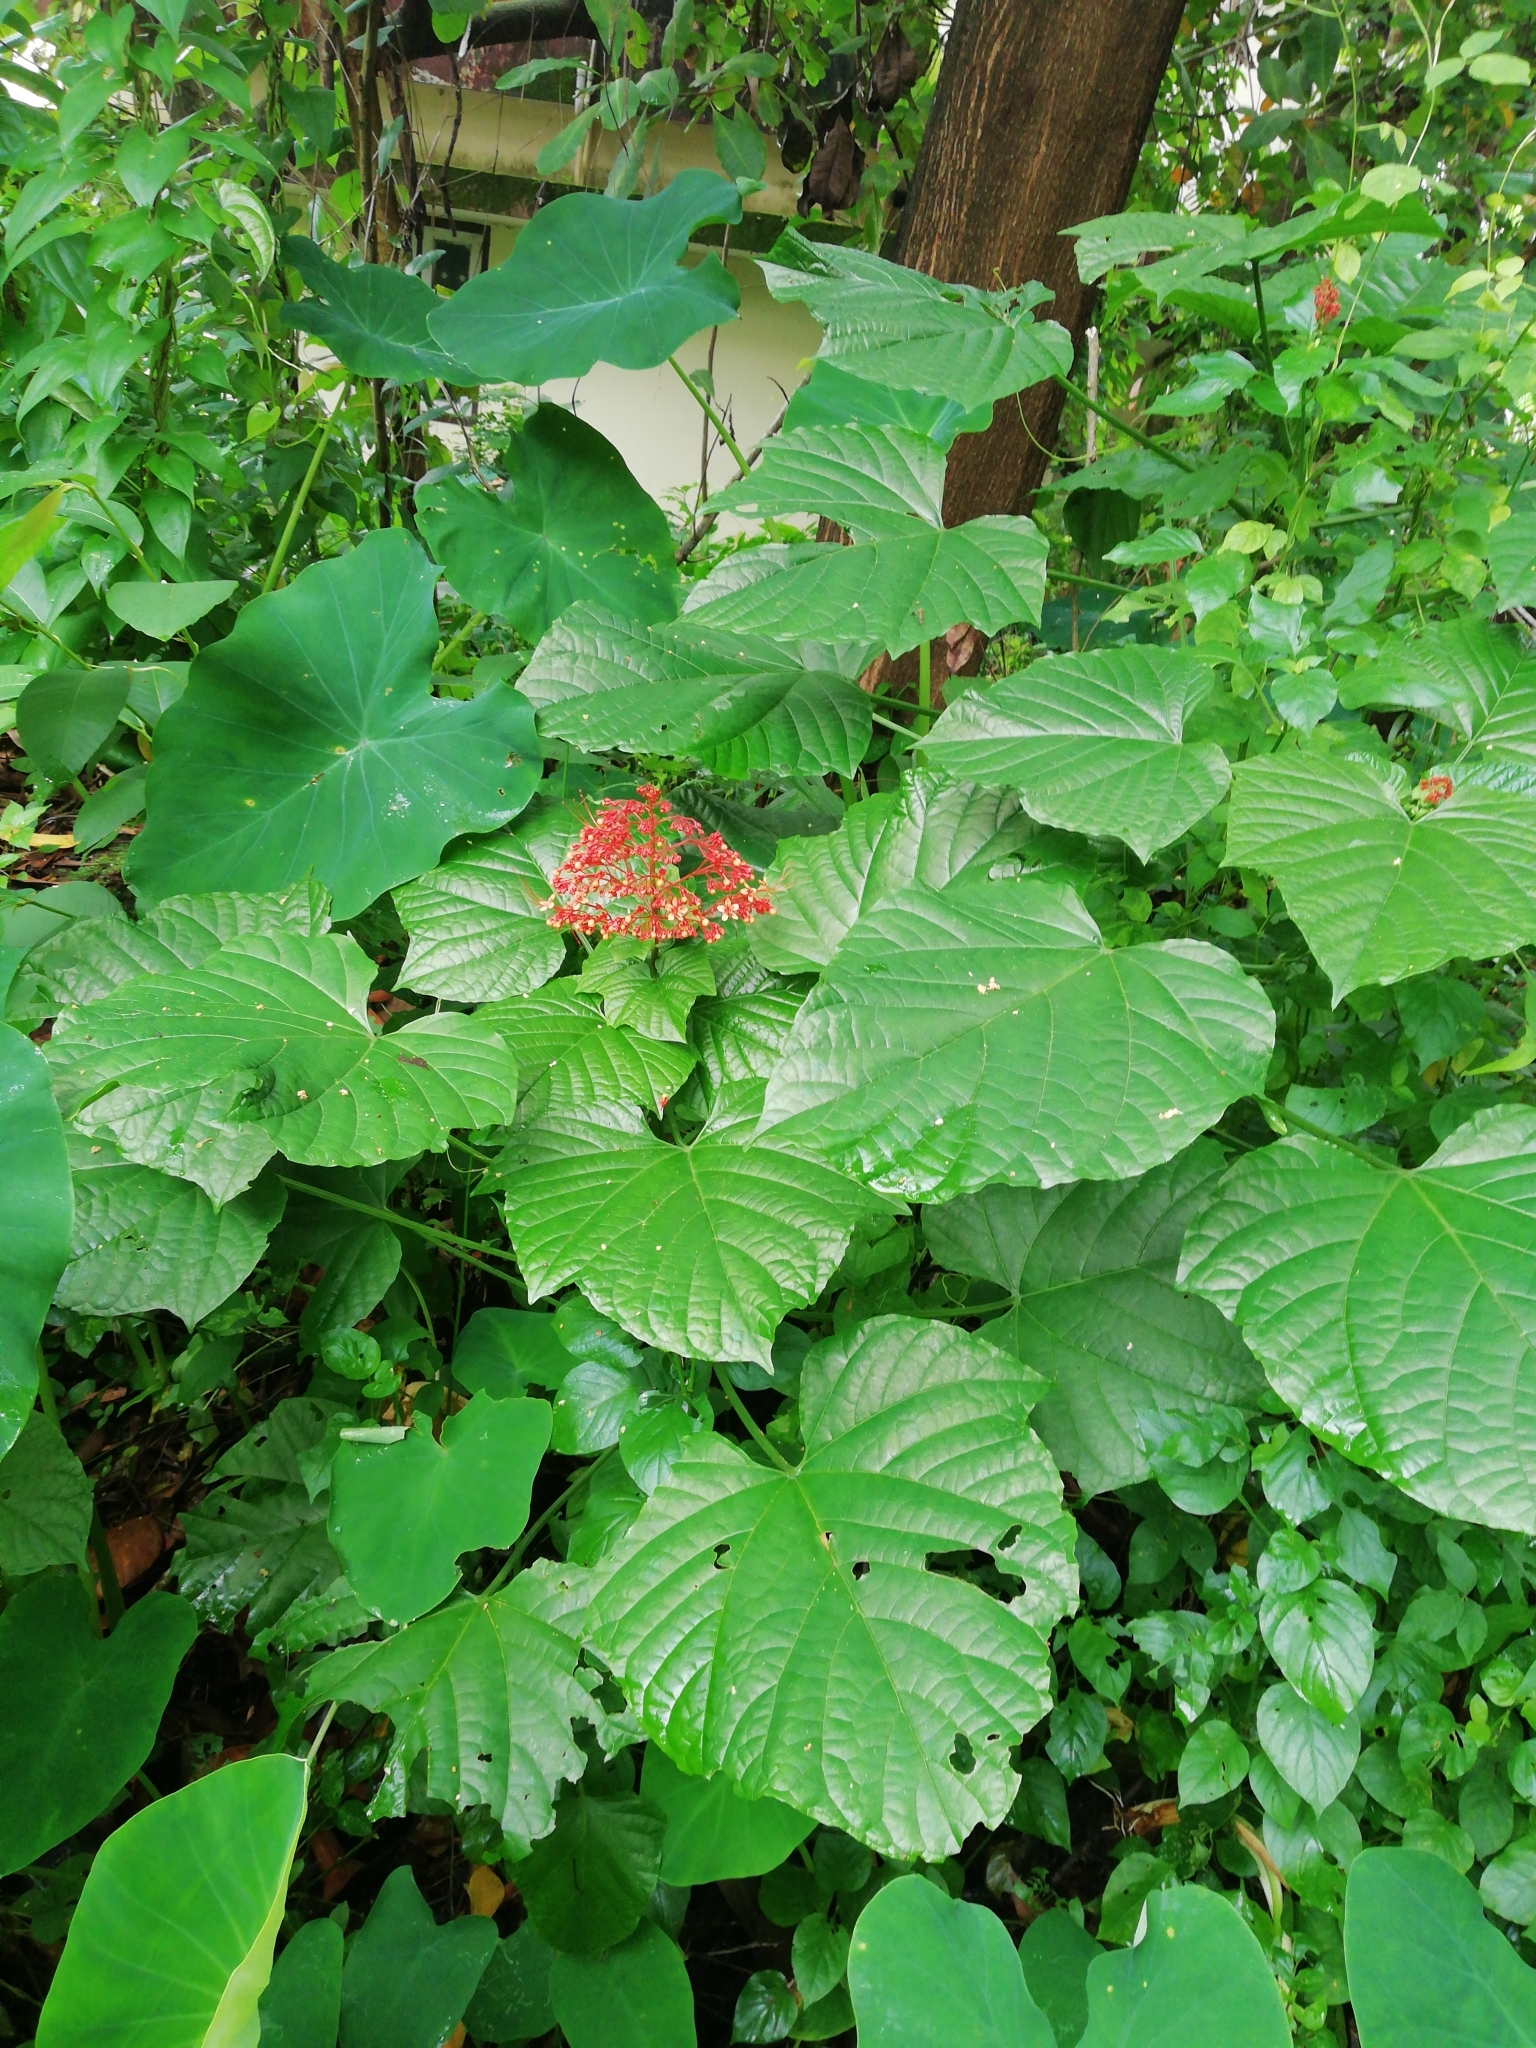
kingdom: Plantae
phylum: Tracheophyta
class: Magnoliopsida
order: Lamiales
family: Lamiaceae
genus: Clerodendrum
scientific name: Clerodendrum paniculatum
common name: Pagoda-flower
